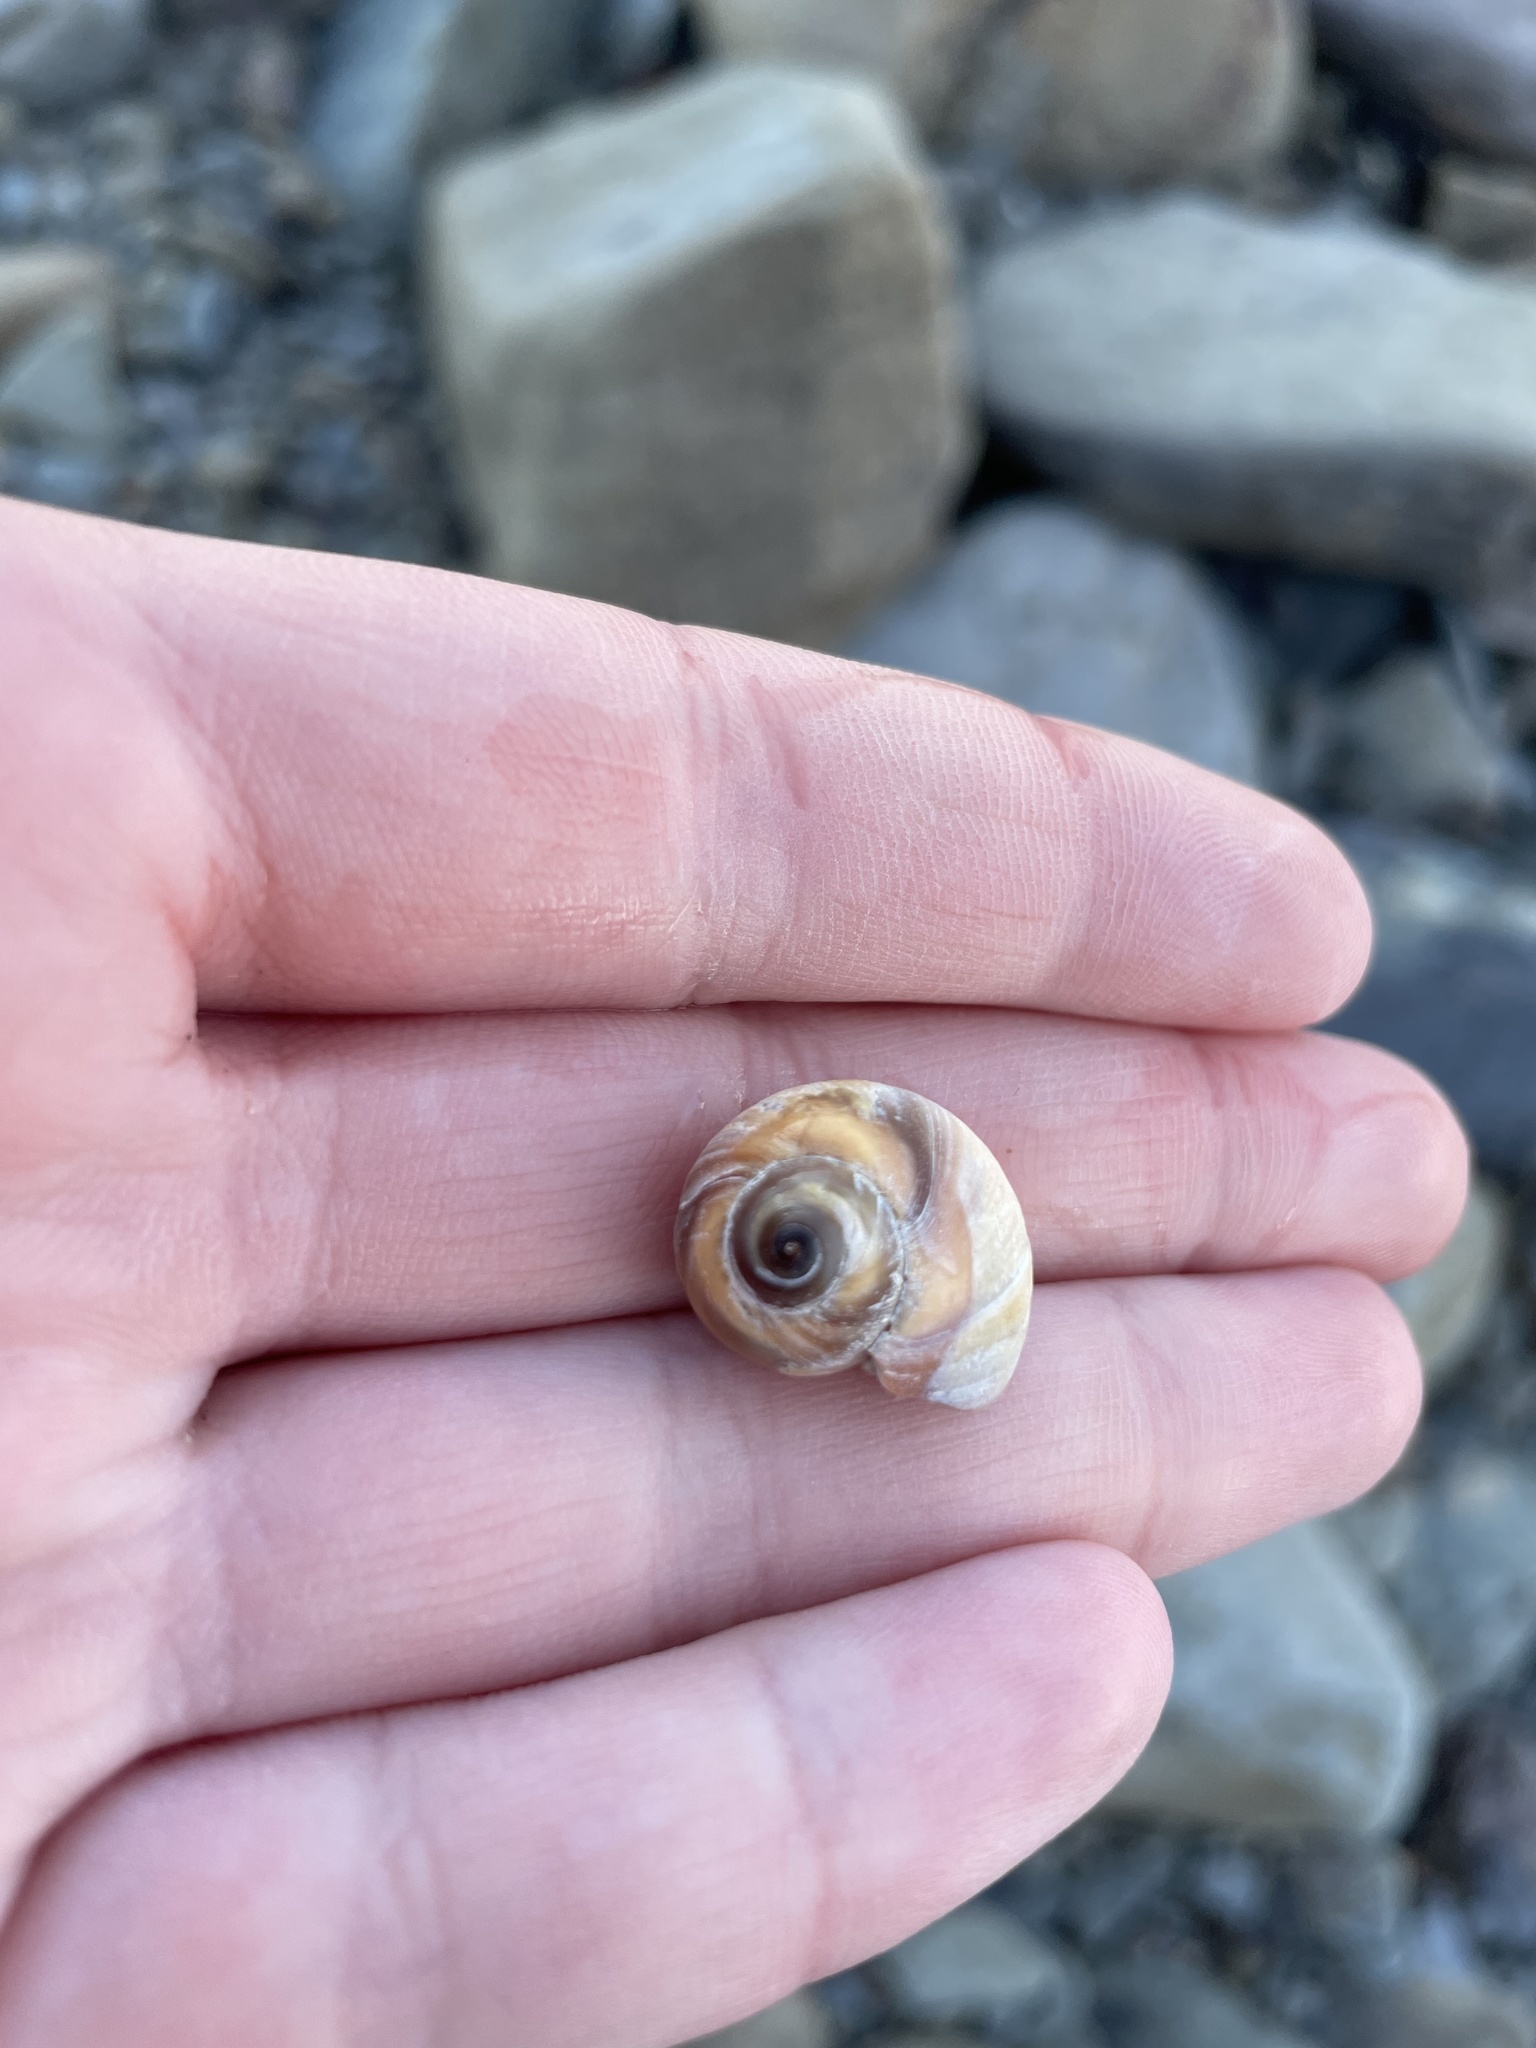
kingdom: Animalia
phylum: Mollusca
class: Gastropoda
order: Littorinimorpha
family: Naticidae
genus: Euspira
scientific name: Euspira heros
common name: Common northern moonsnail
